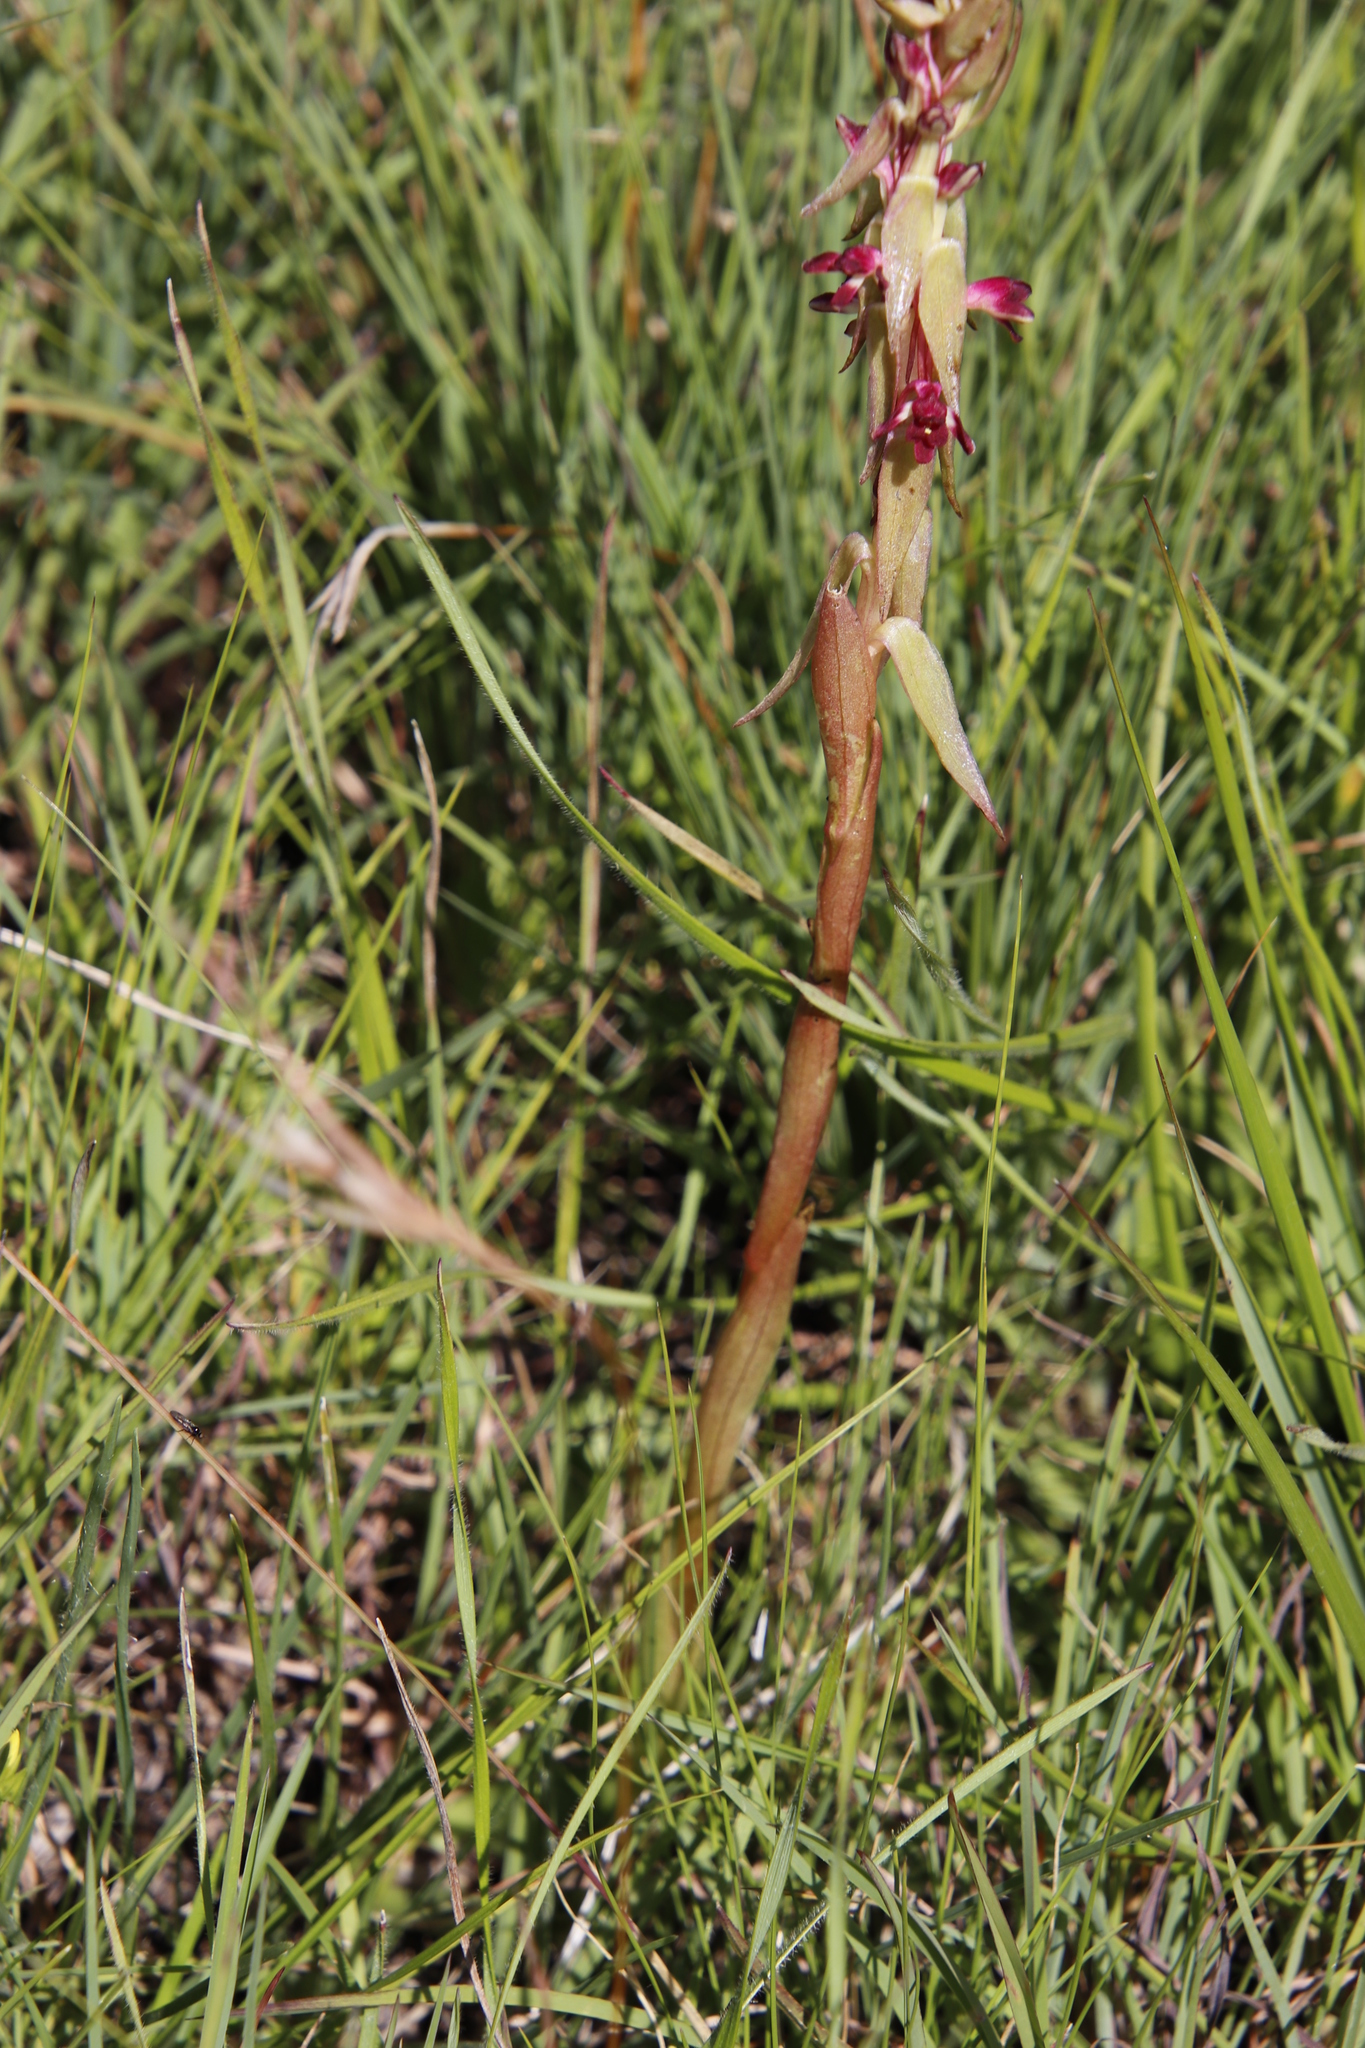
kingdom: Plantae
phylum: Tracheophyta
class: Liliopsida
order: Asparagales
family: Orchidaceae
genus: Satyrium
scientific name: Satyrium longicauda
